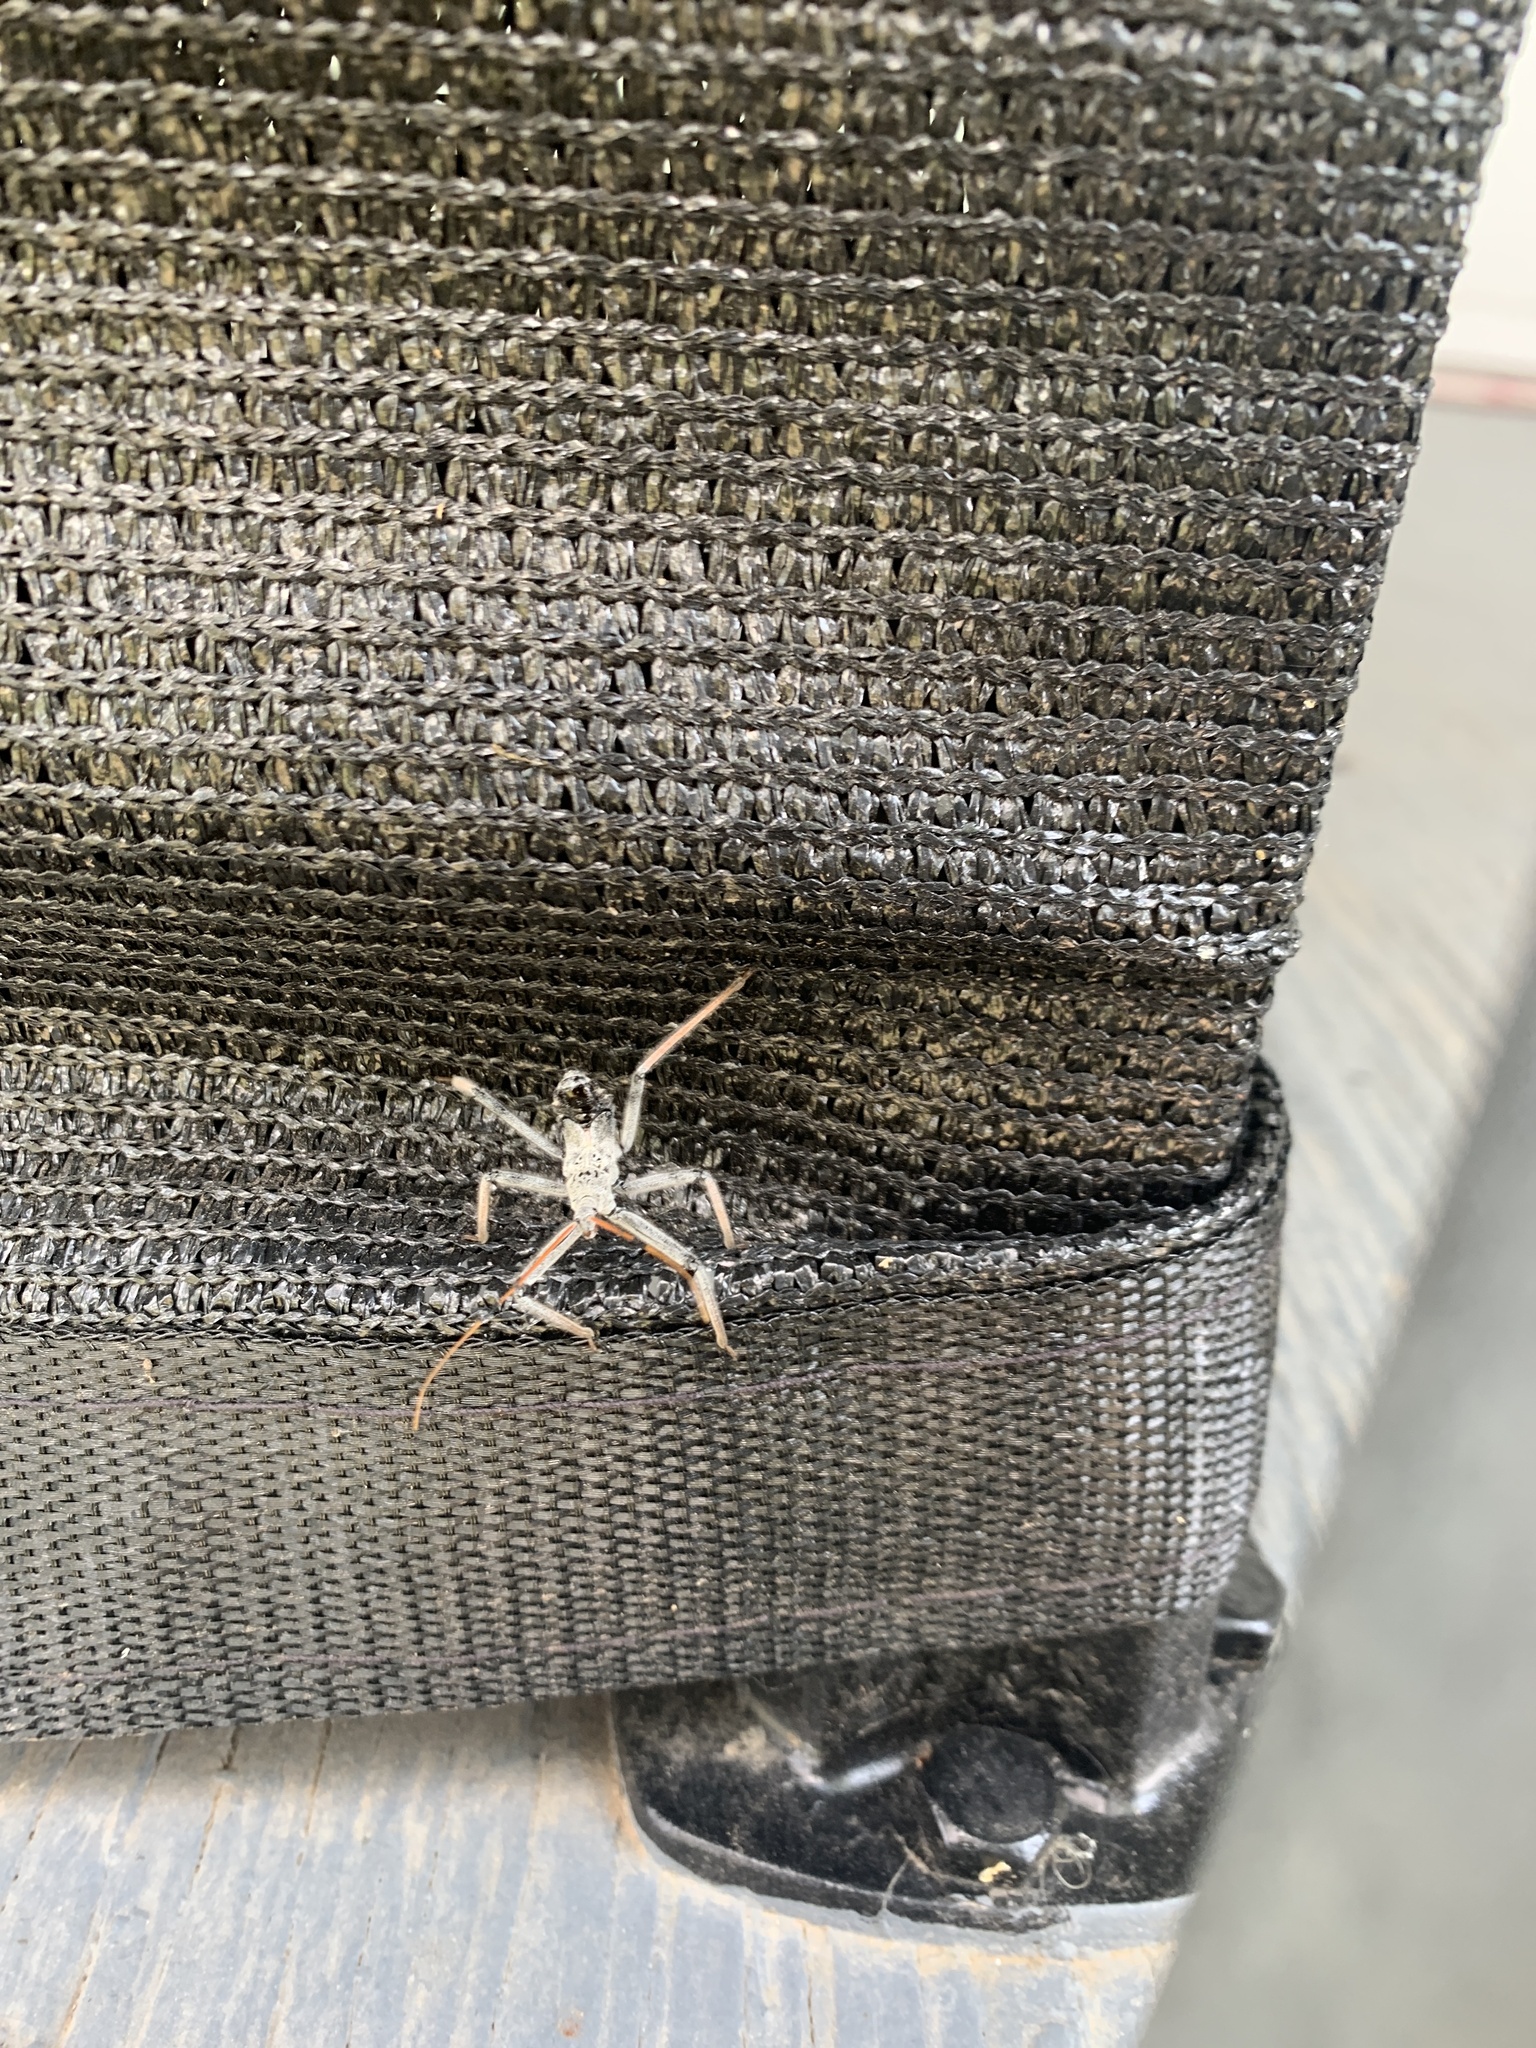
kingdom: Animalia
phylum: Arthropoda
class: Insecta
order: Hemiptera
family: Reduviidae
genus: Arilus
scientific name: Arilus cristatus
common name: North american wheel bug
